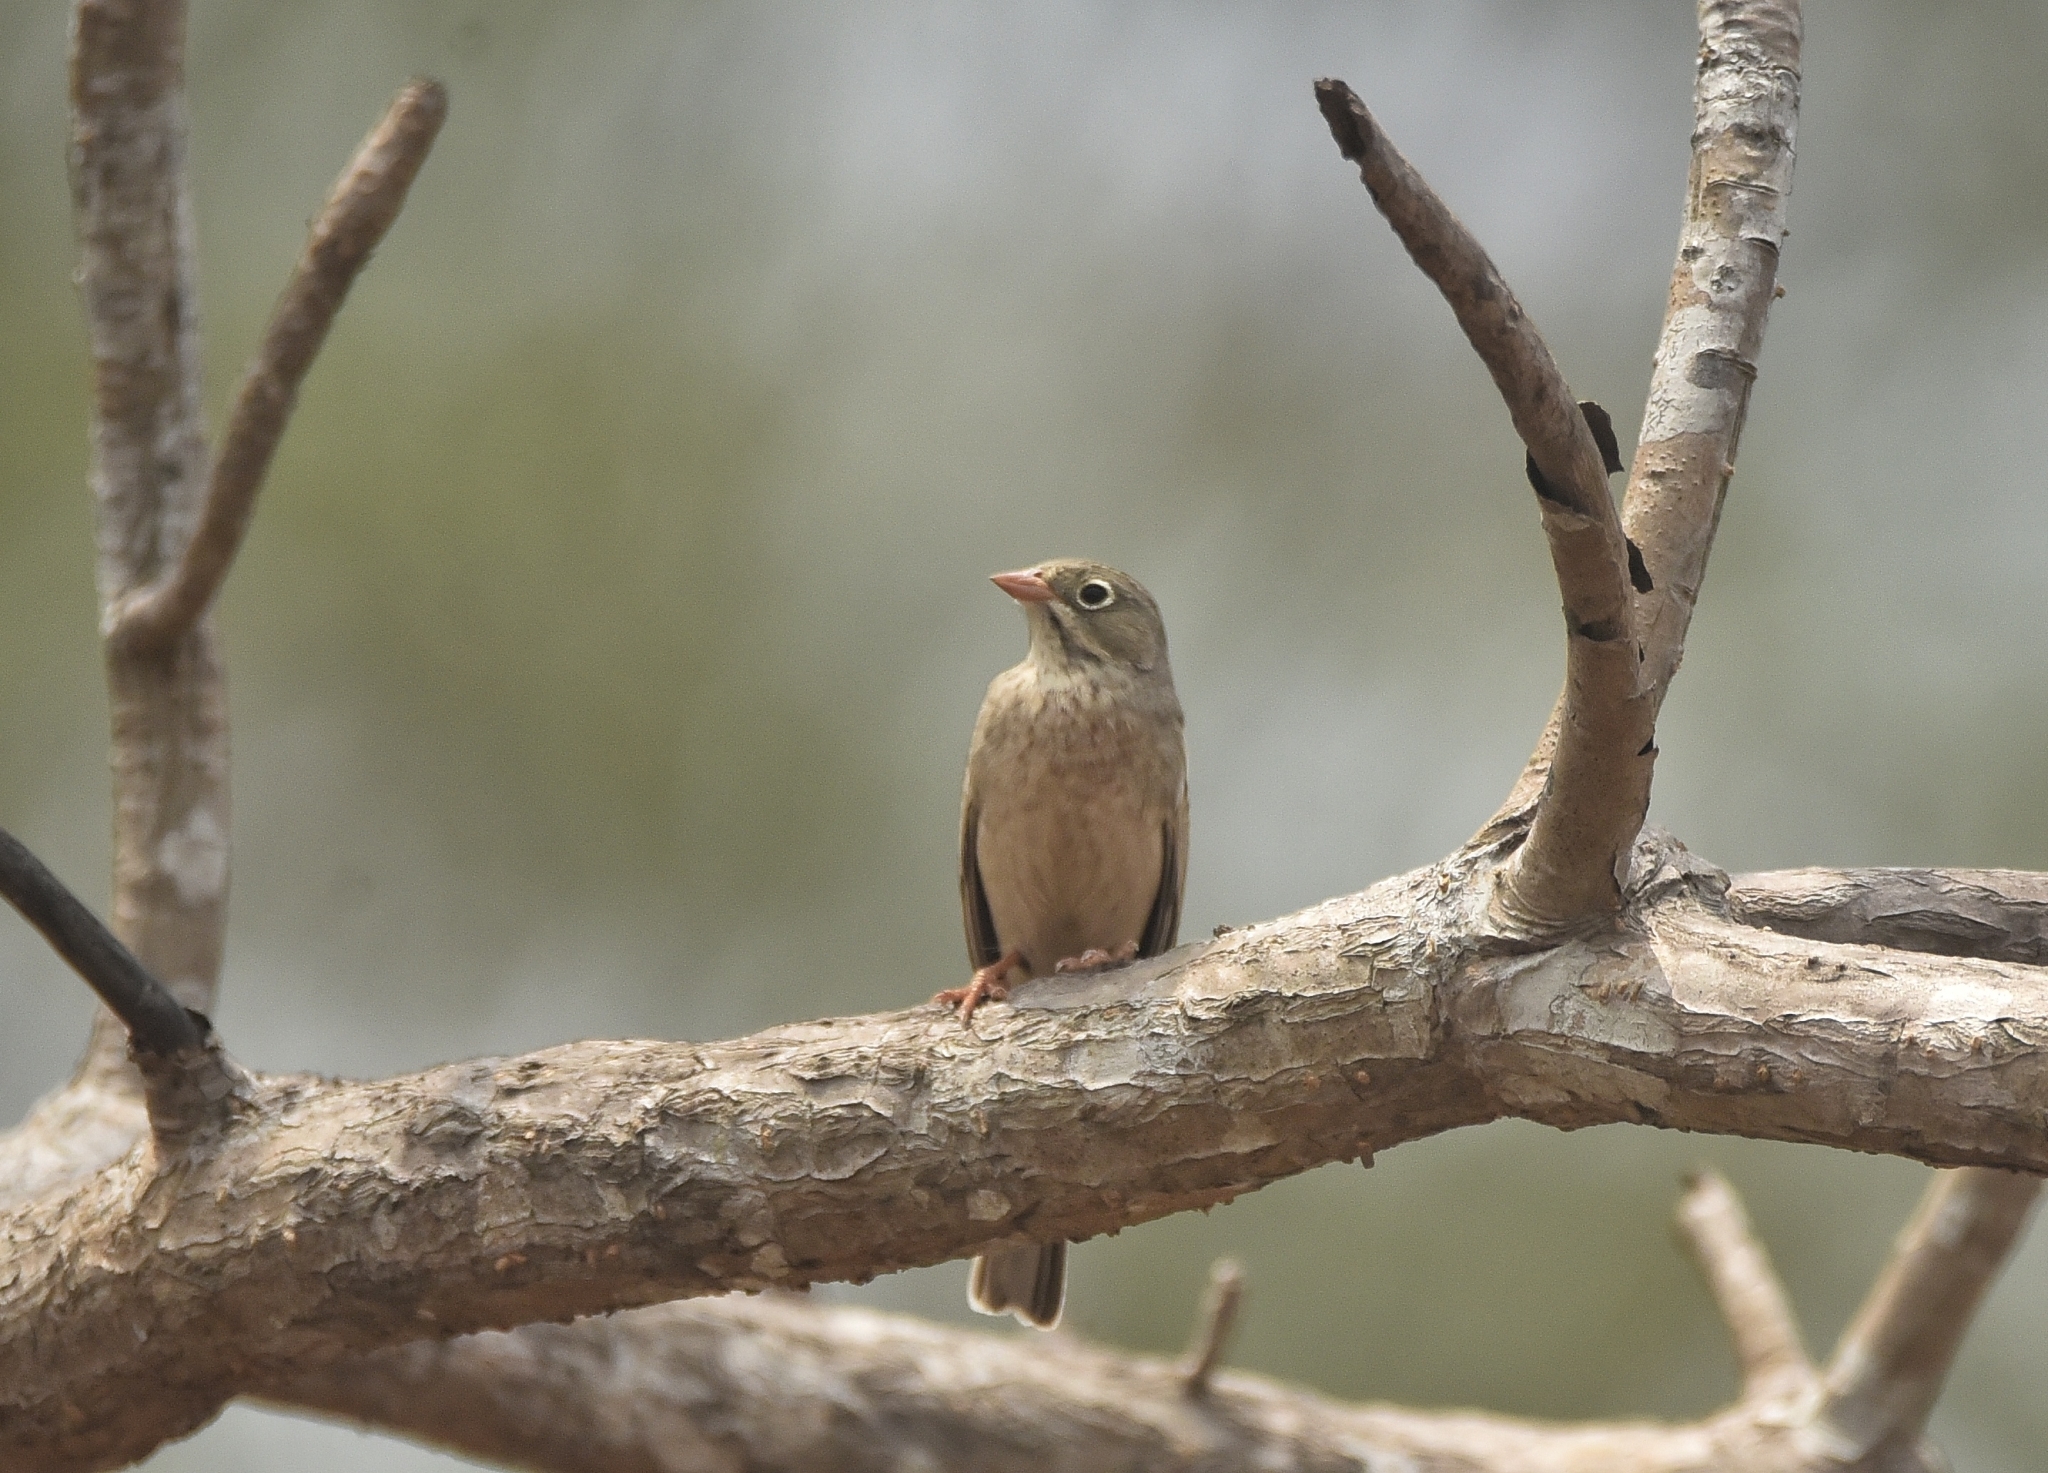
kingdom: Animalia
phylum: Chordata
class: Aves
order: Passeriformes
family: Emberizidae
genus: Emberiza
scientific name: Emberiza buchanani
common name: Grey-necked bunting
